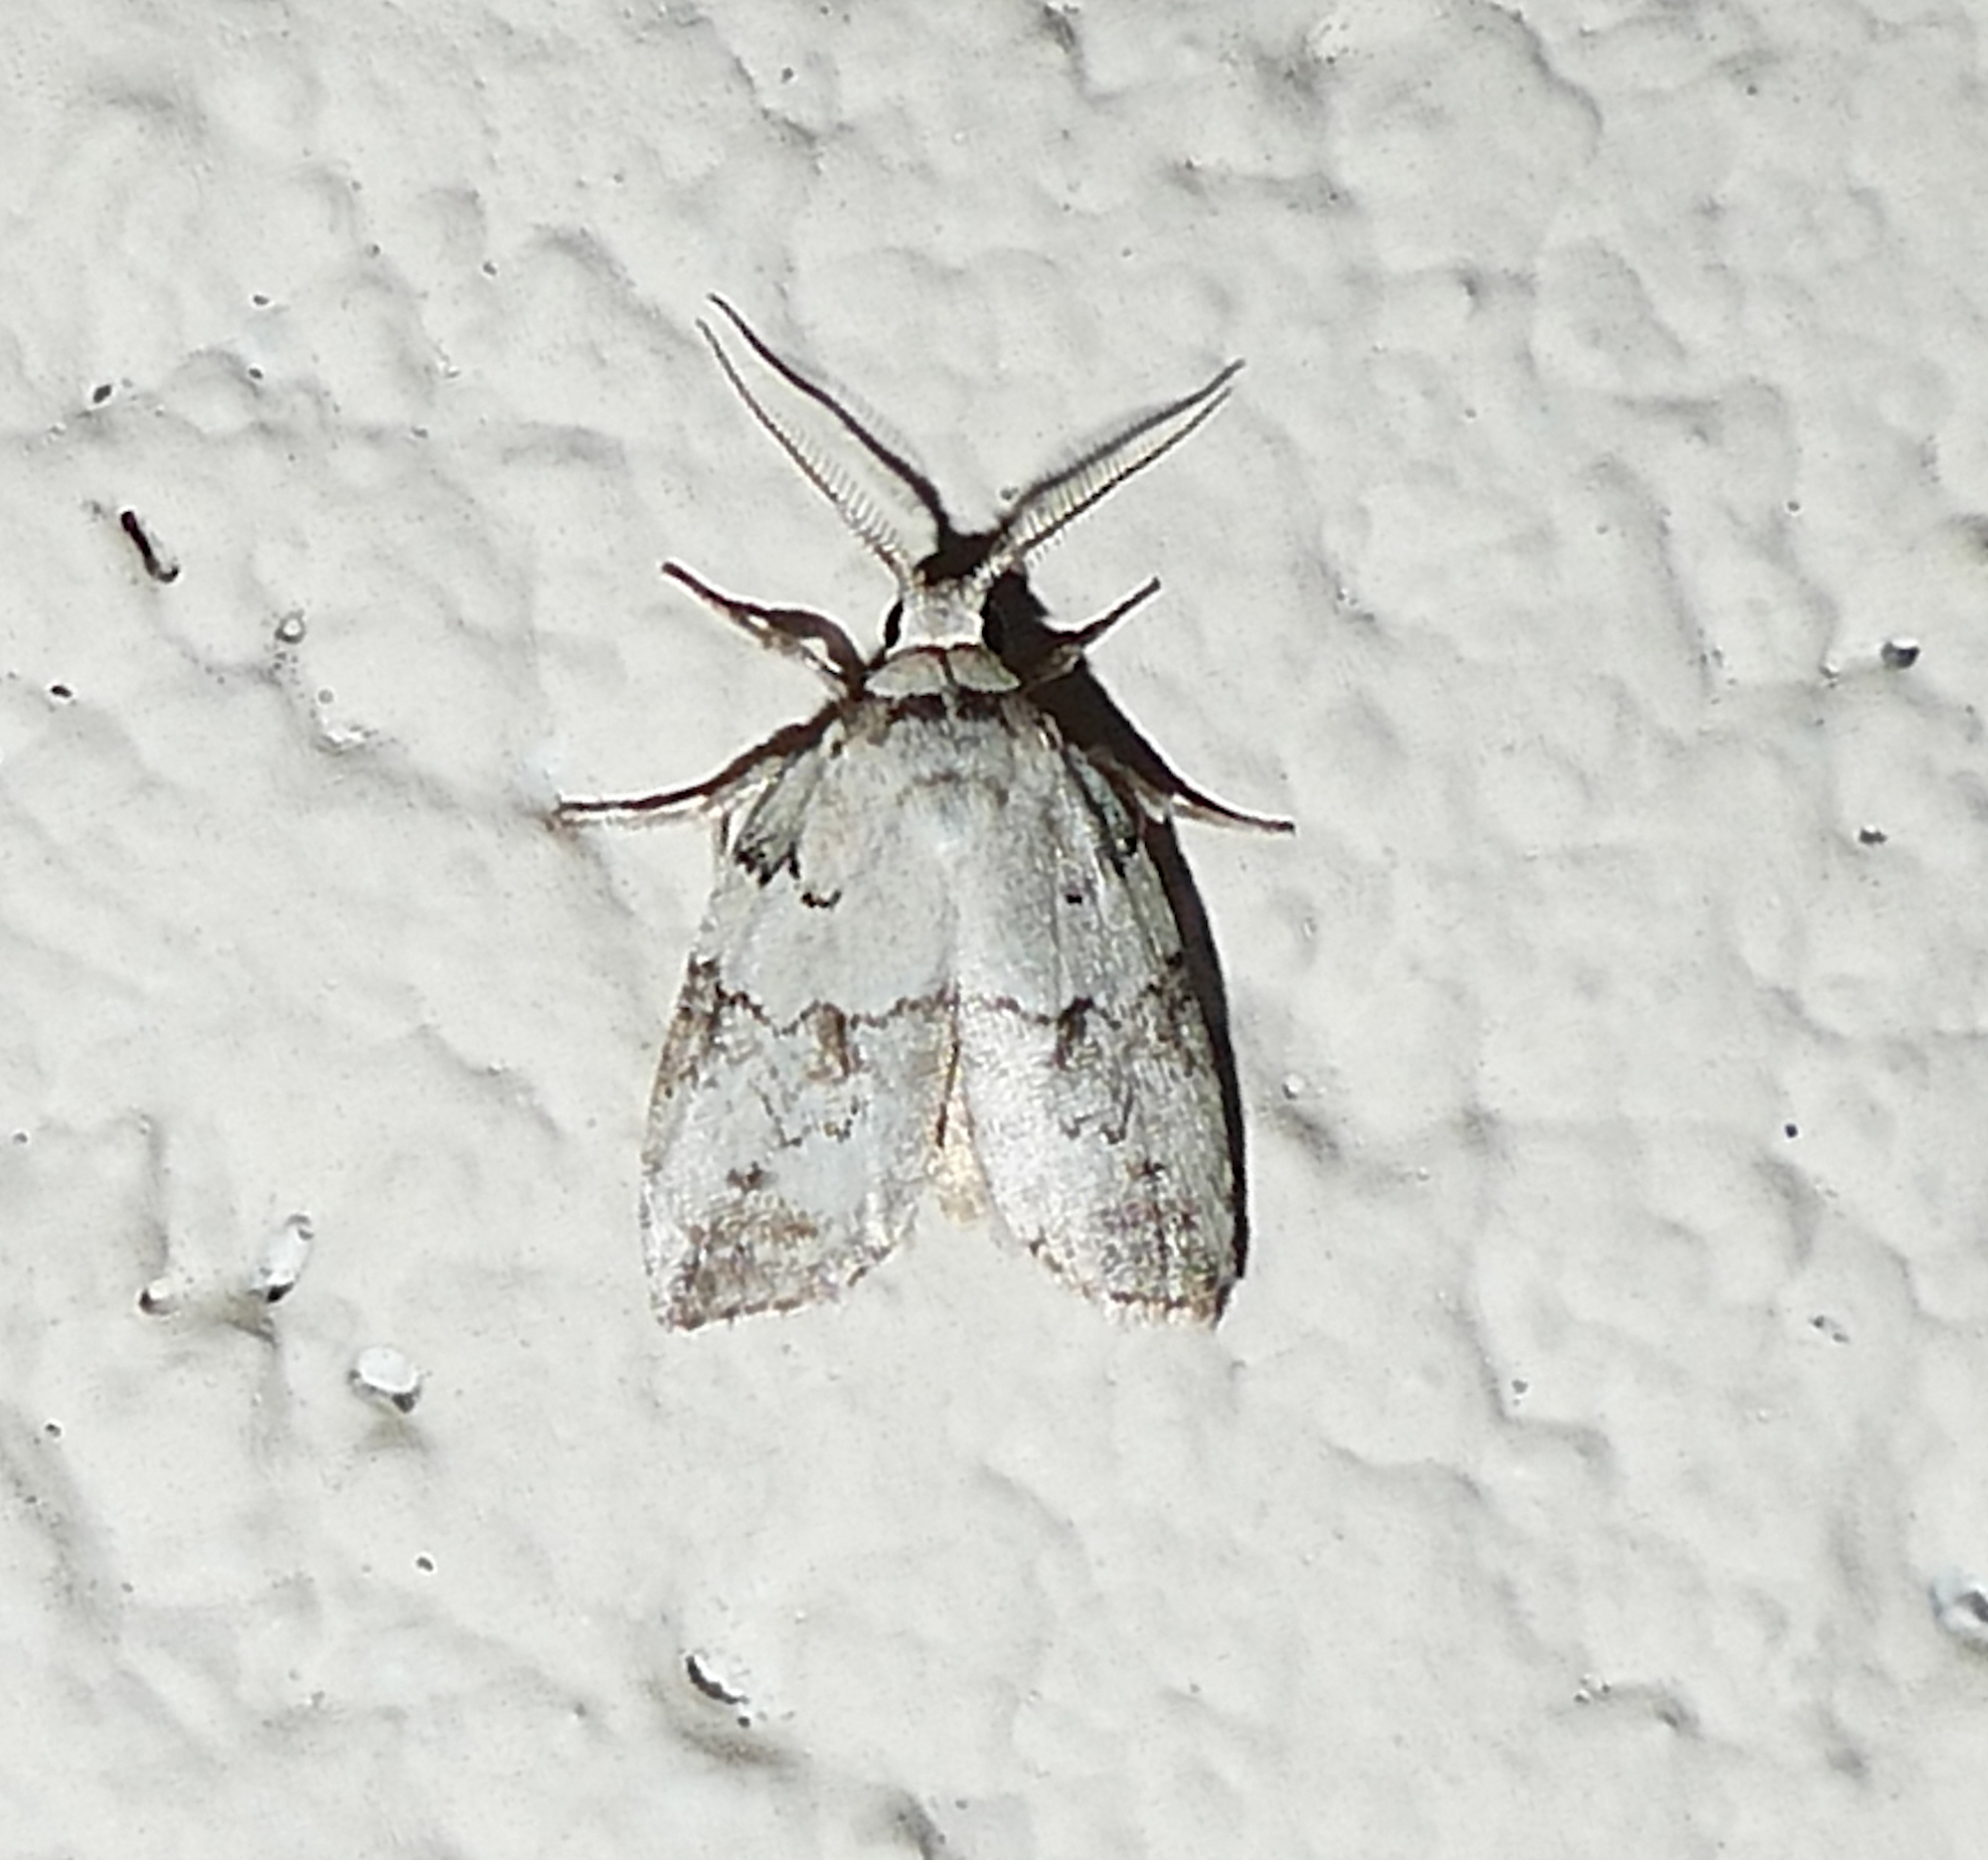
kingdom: Animalia
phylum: Arthropoda
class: Insecta
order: Lepidoptera
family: Nolidae
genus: Afrida
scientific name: Afrida ydatodes
